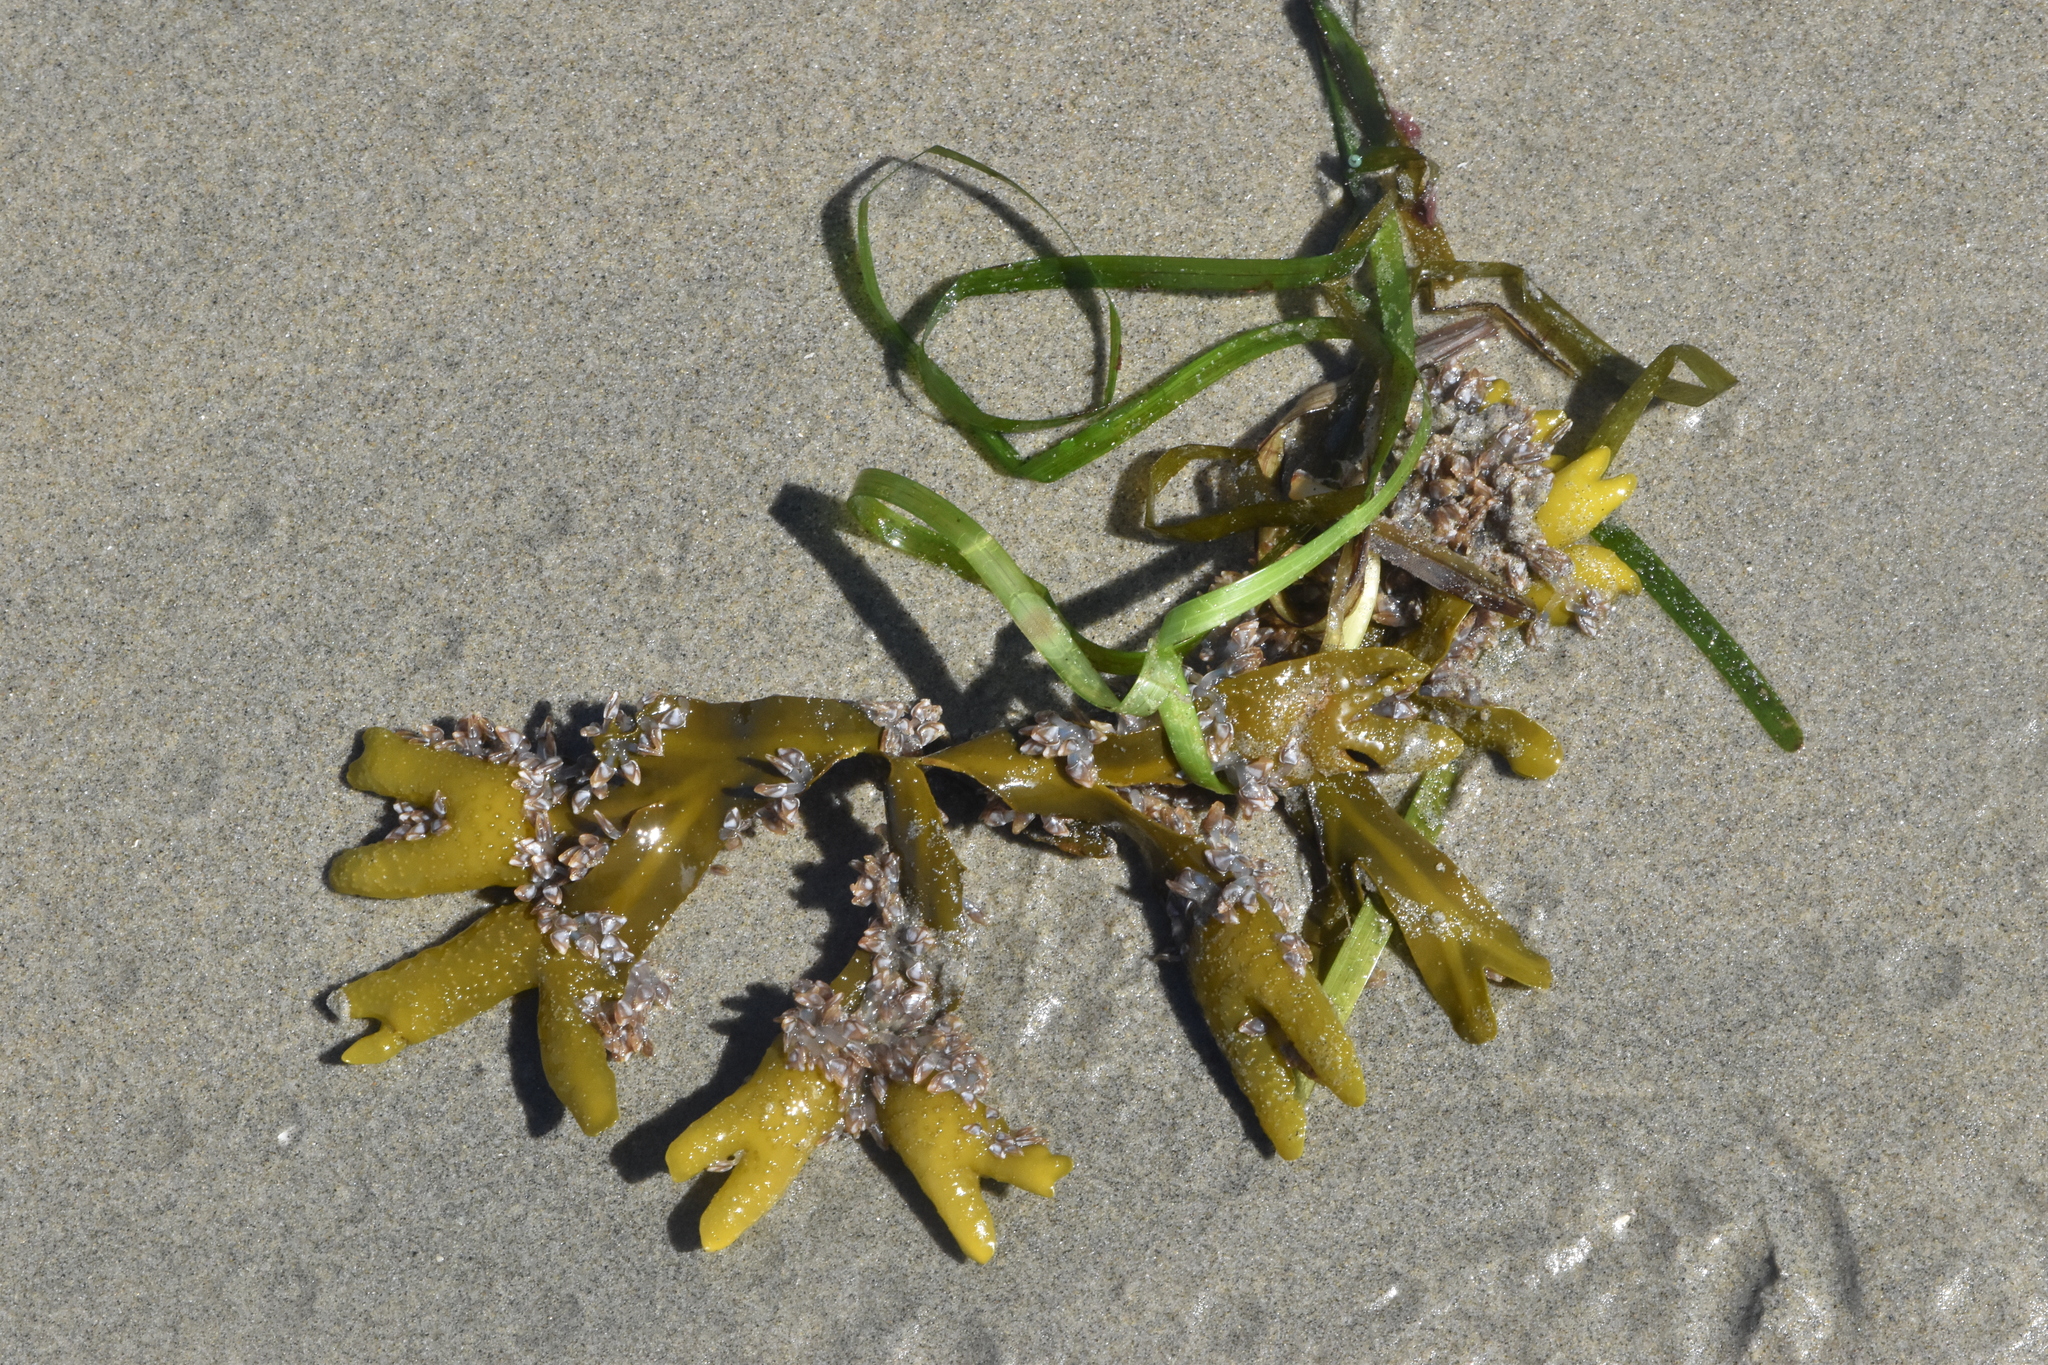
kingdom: Chromista
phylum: Ochrophyta
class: Phaeophyceae
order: Fucales
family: Fucaceae
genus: Fucus
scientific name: Fucus distichus
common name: Rockweed
